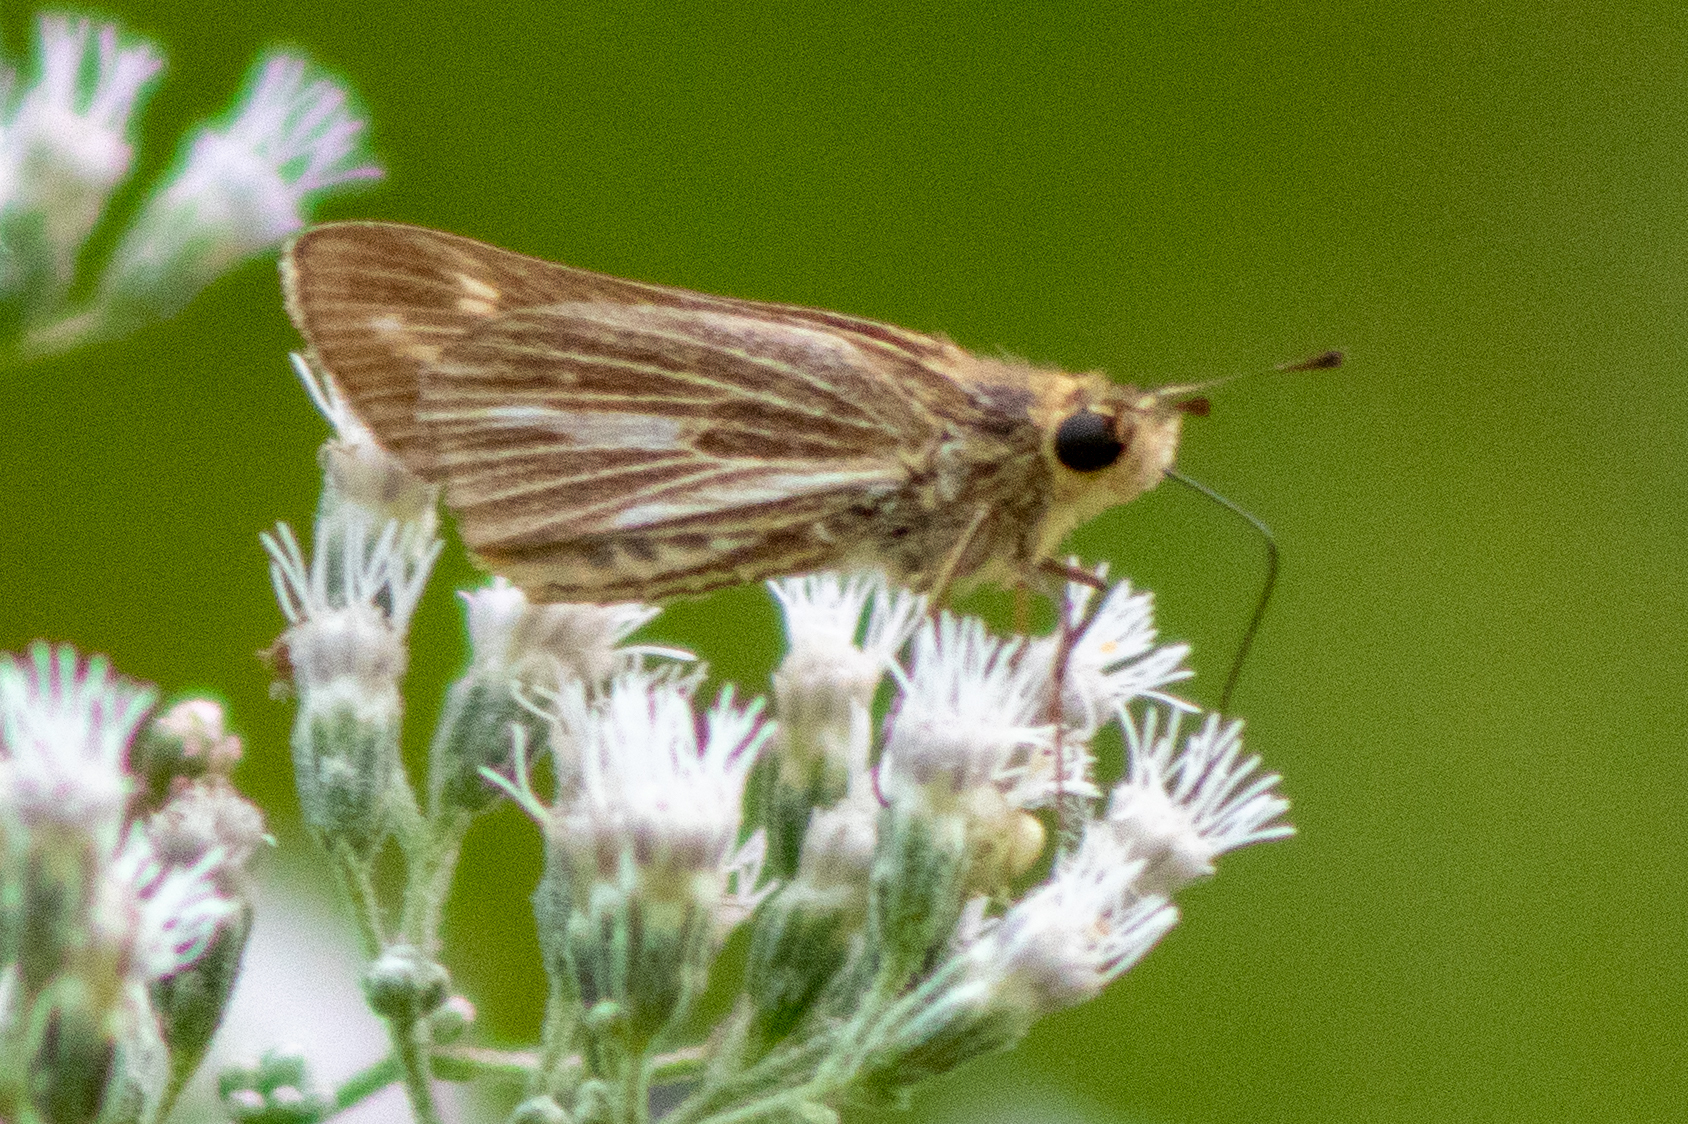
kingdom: Animalia
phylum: Arthropoda
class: Insecta
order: Lepidoptera
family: Hesperiidae
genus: Panoquina
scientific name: Panoquina panoquin
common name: Salt marsh skipper
